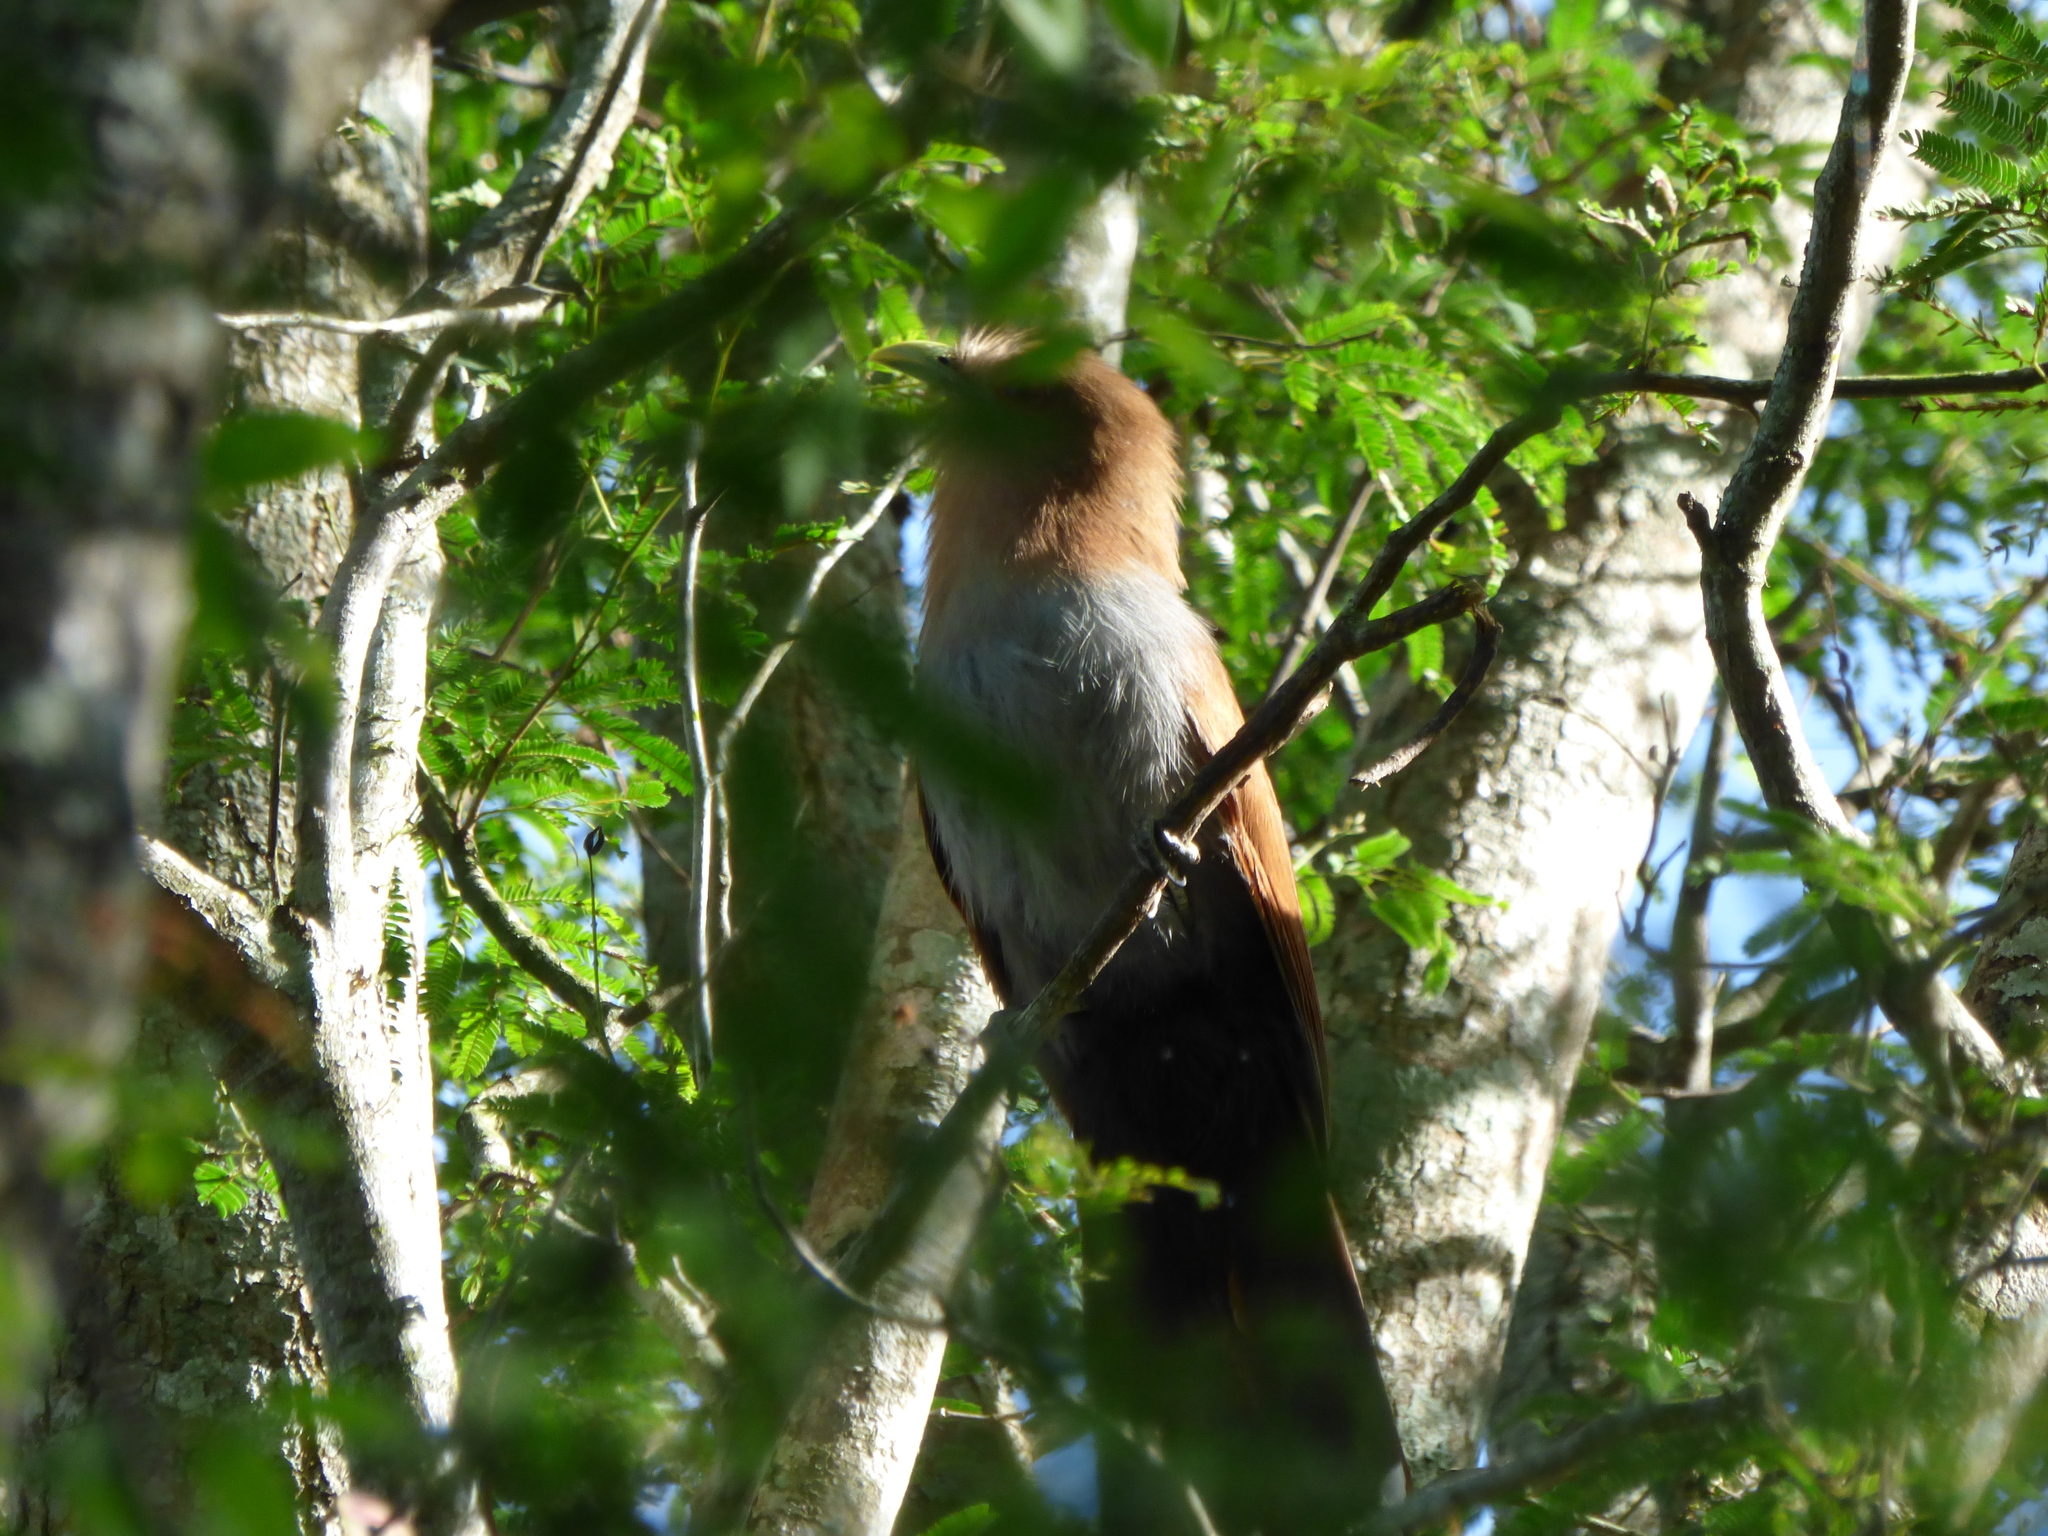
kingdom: Animalia
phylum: Chordata
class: Aves
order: Cuculiformes
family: Cuculidae
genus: Piaya
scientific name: Piaya cayana
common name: Squirrel cuckoo
